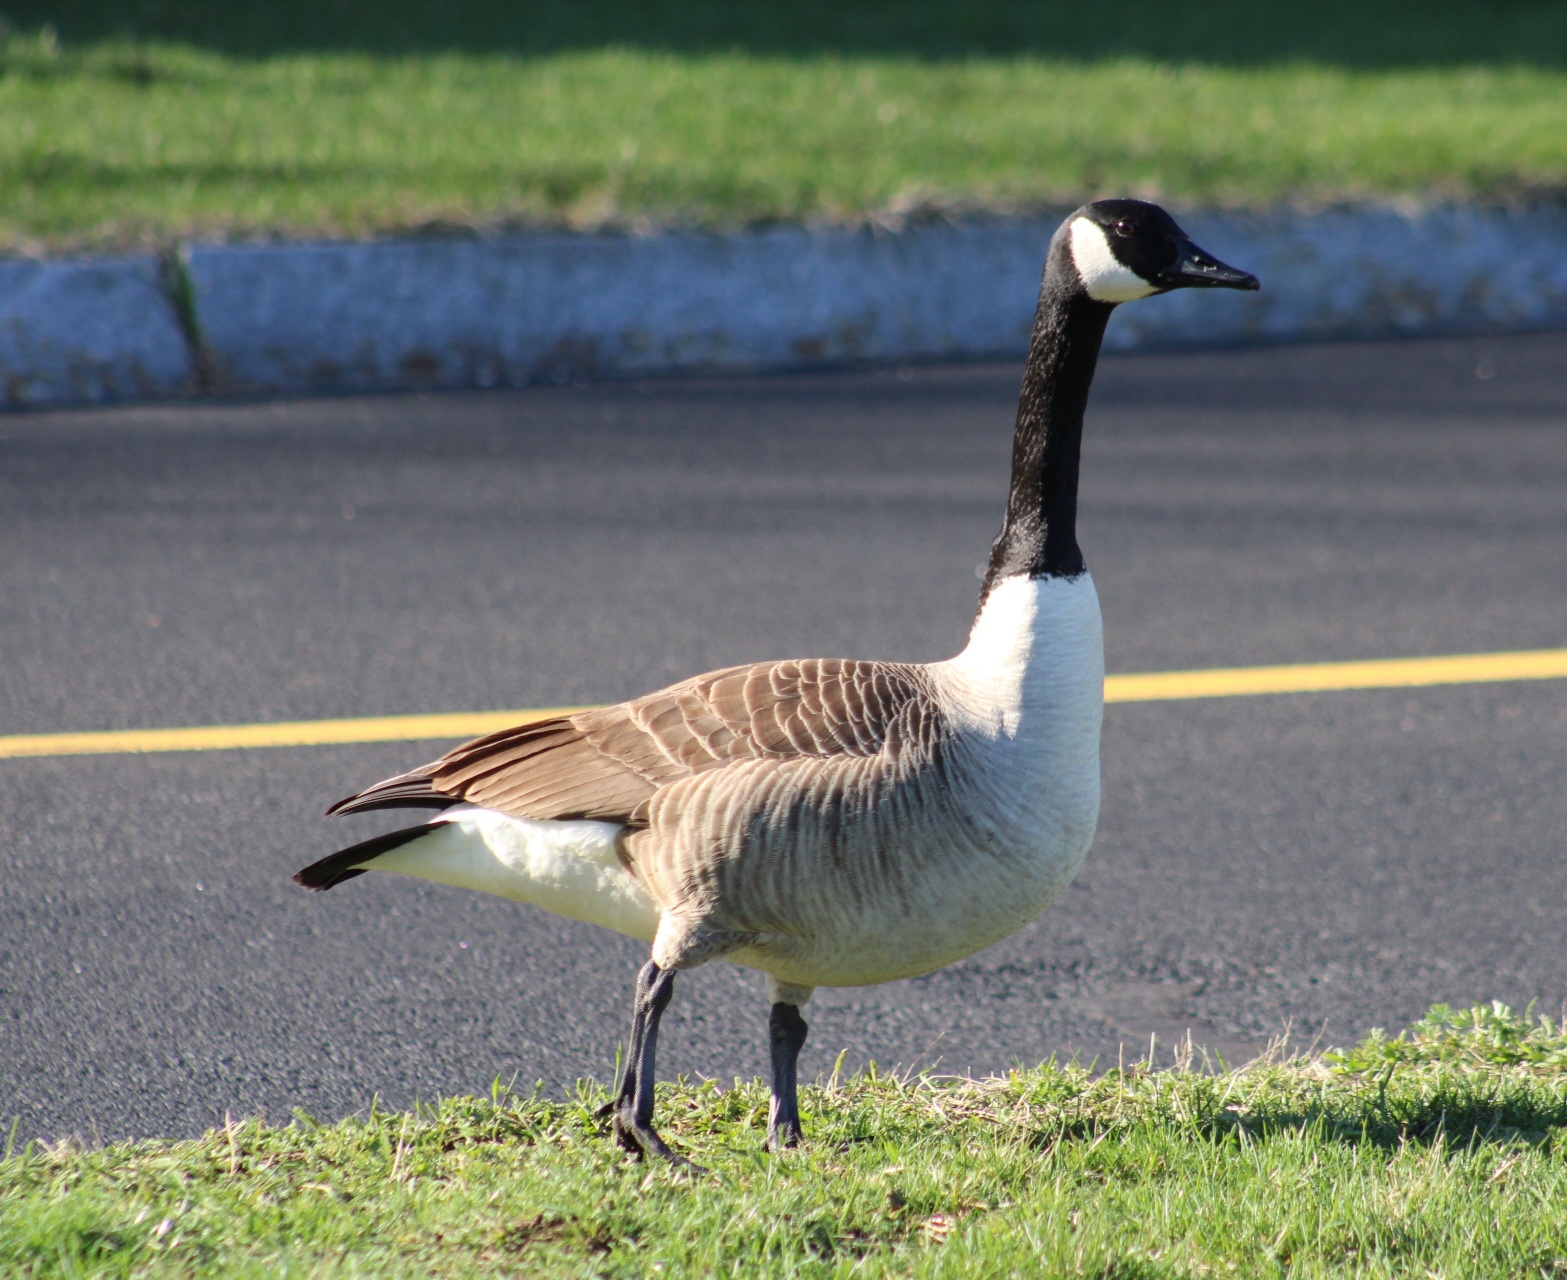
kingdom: Animalia
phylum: Chordata
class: Aves
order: Anseriformes
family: Anatidae
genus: Branta
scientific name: Branta canadensis
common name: Canada goose
